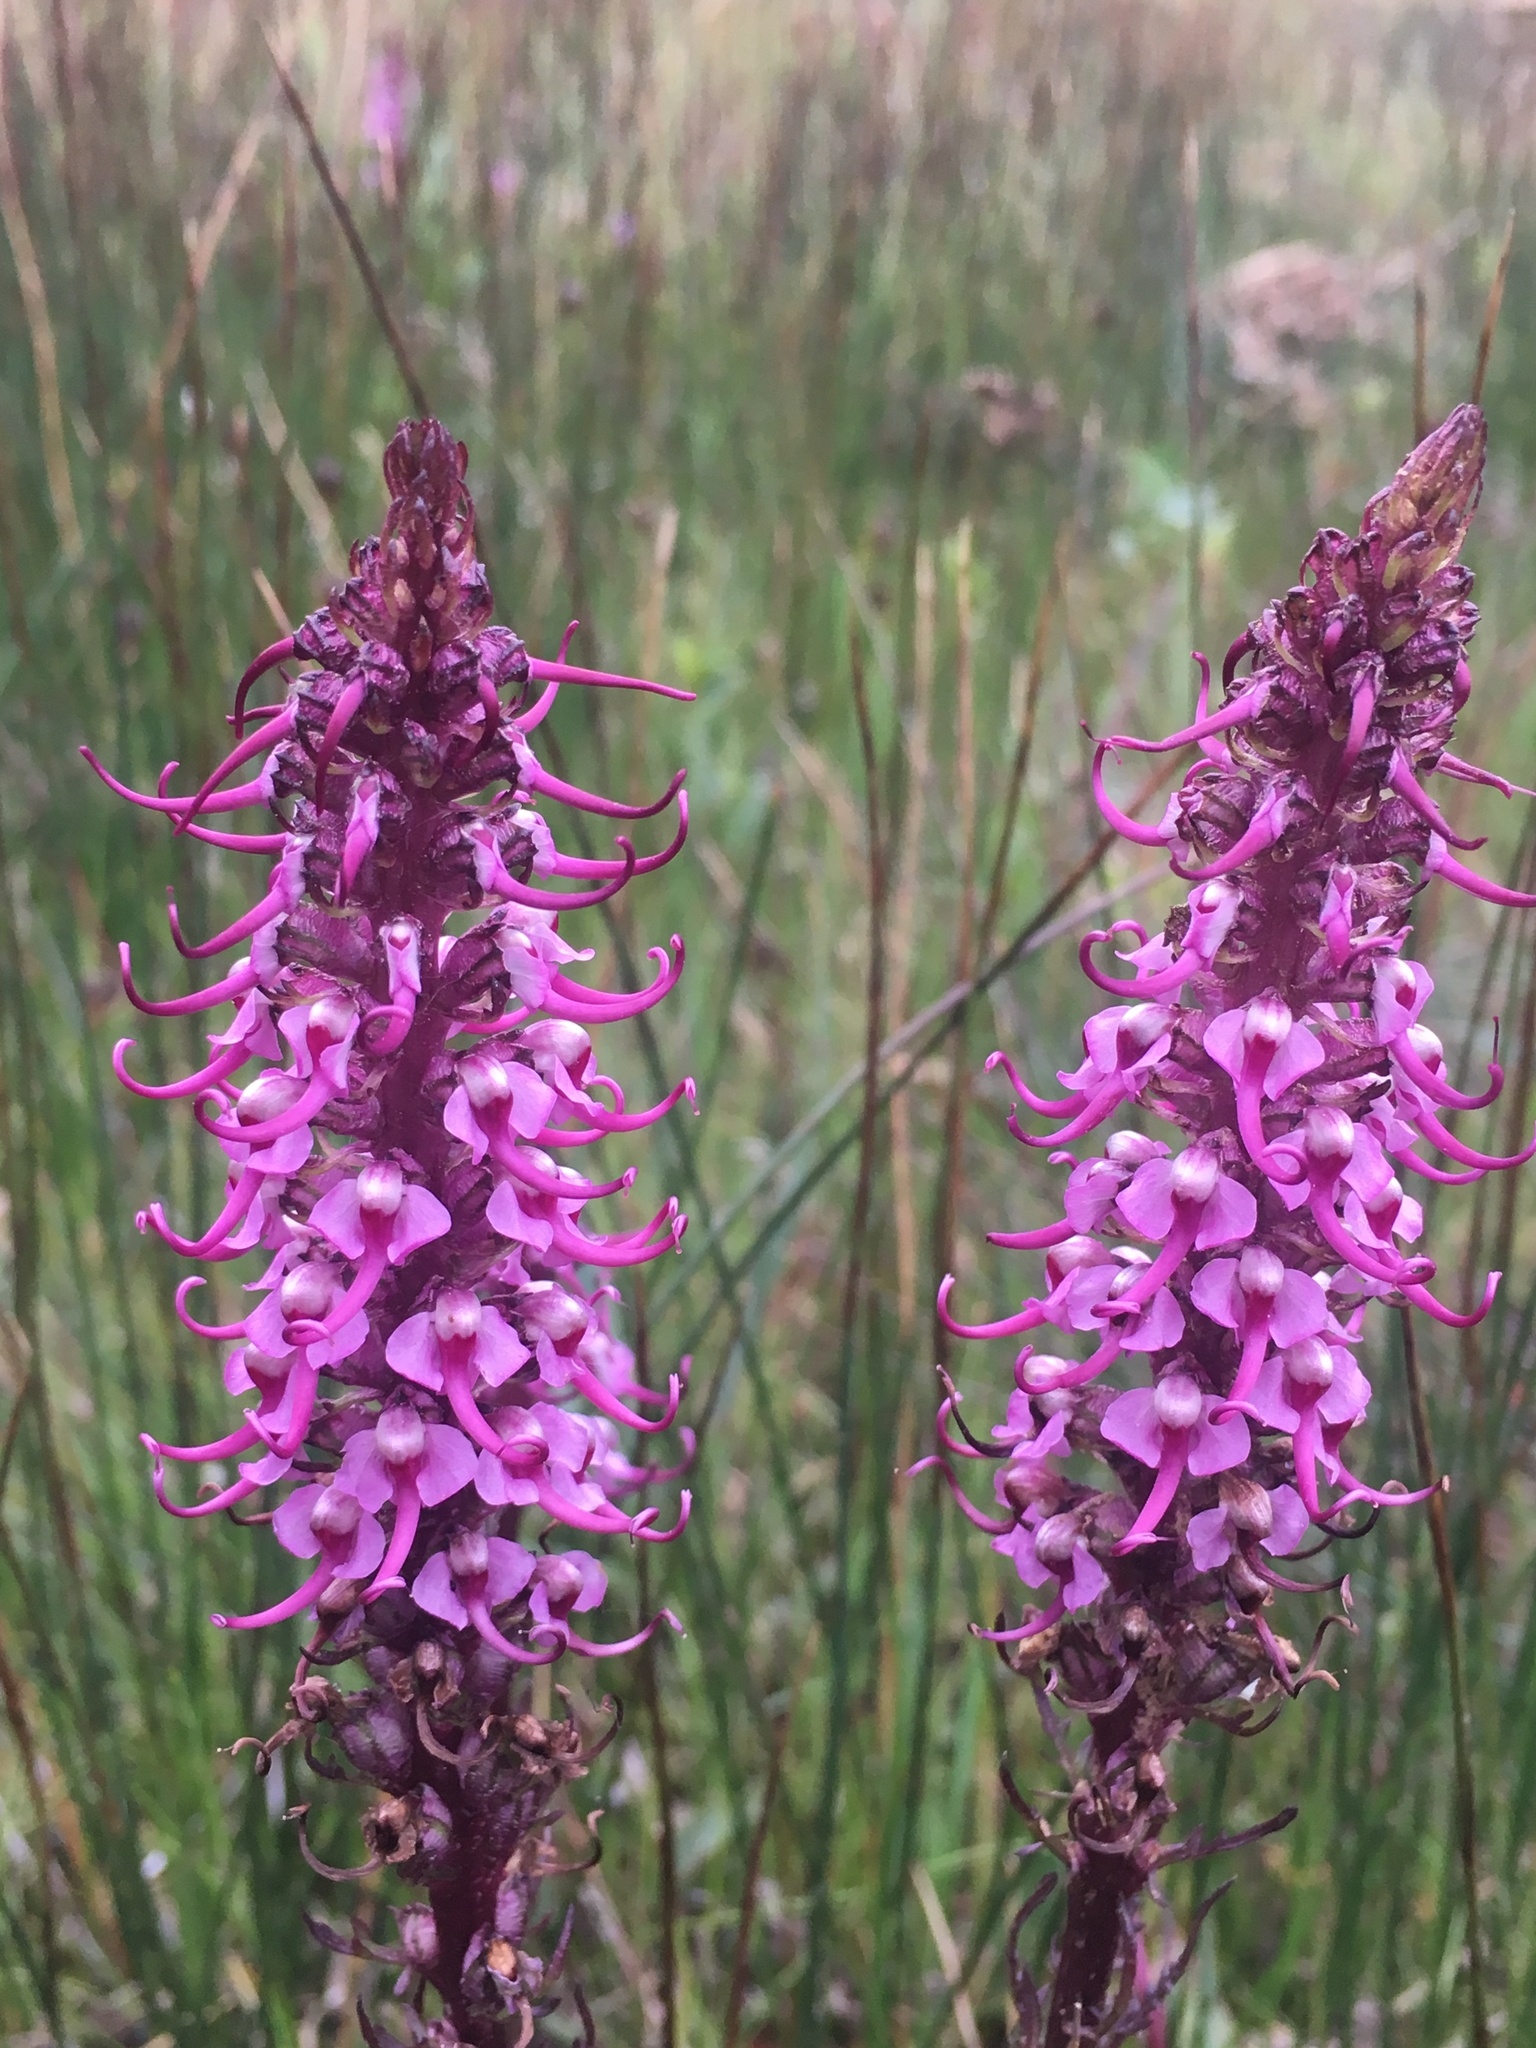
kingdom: Plantae
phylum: Tracheophyta
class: Magnoliopsida
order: Lamiales
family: Orobanchaceae
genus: Pedicularis
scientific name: Pedicularis groenlandica
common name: Elephant's-head
